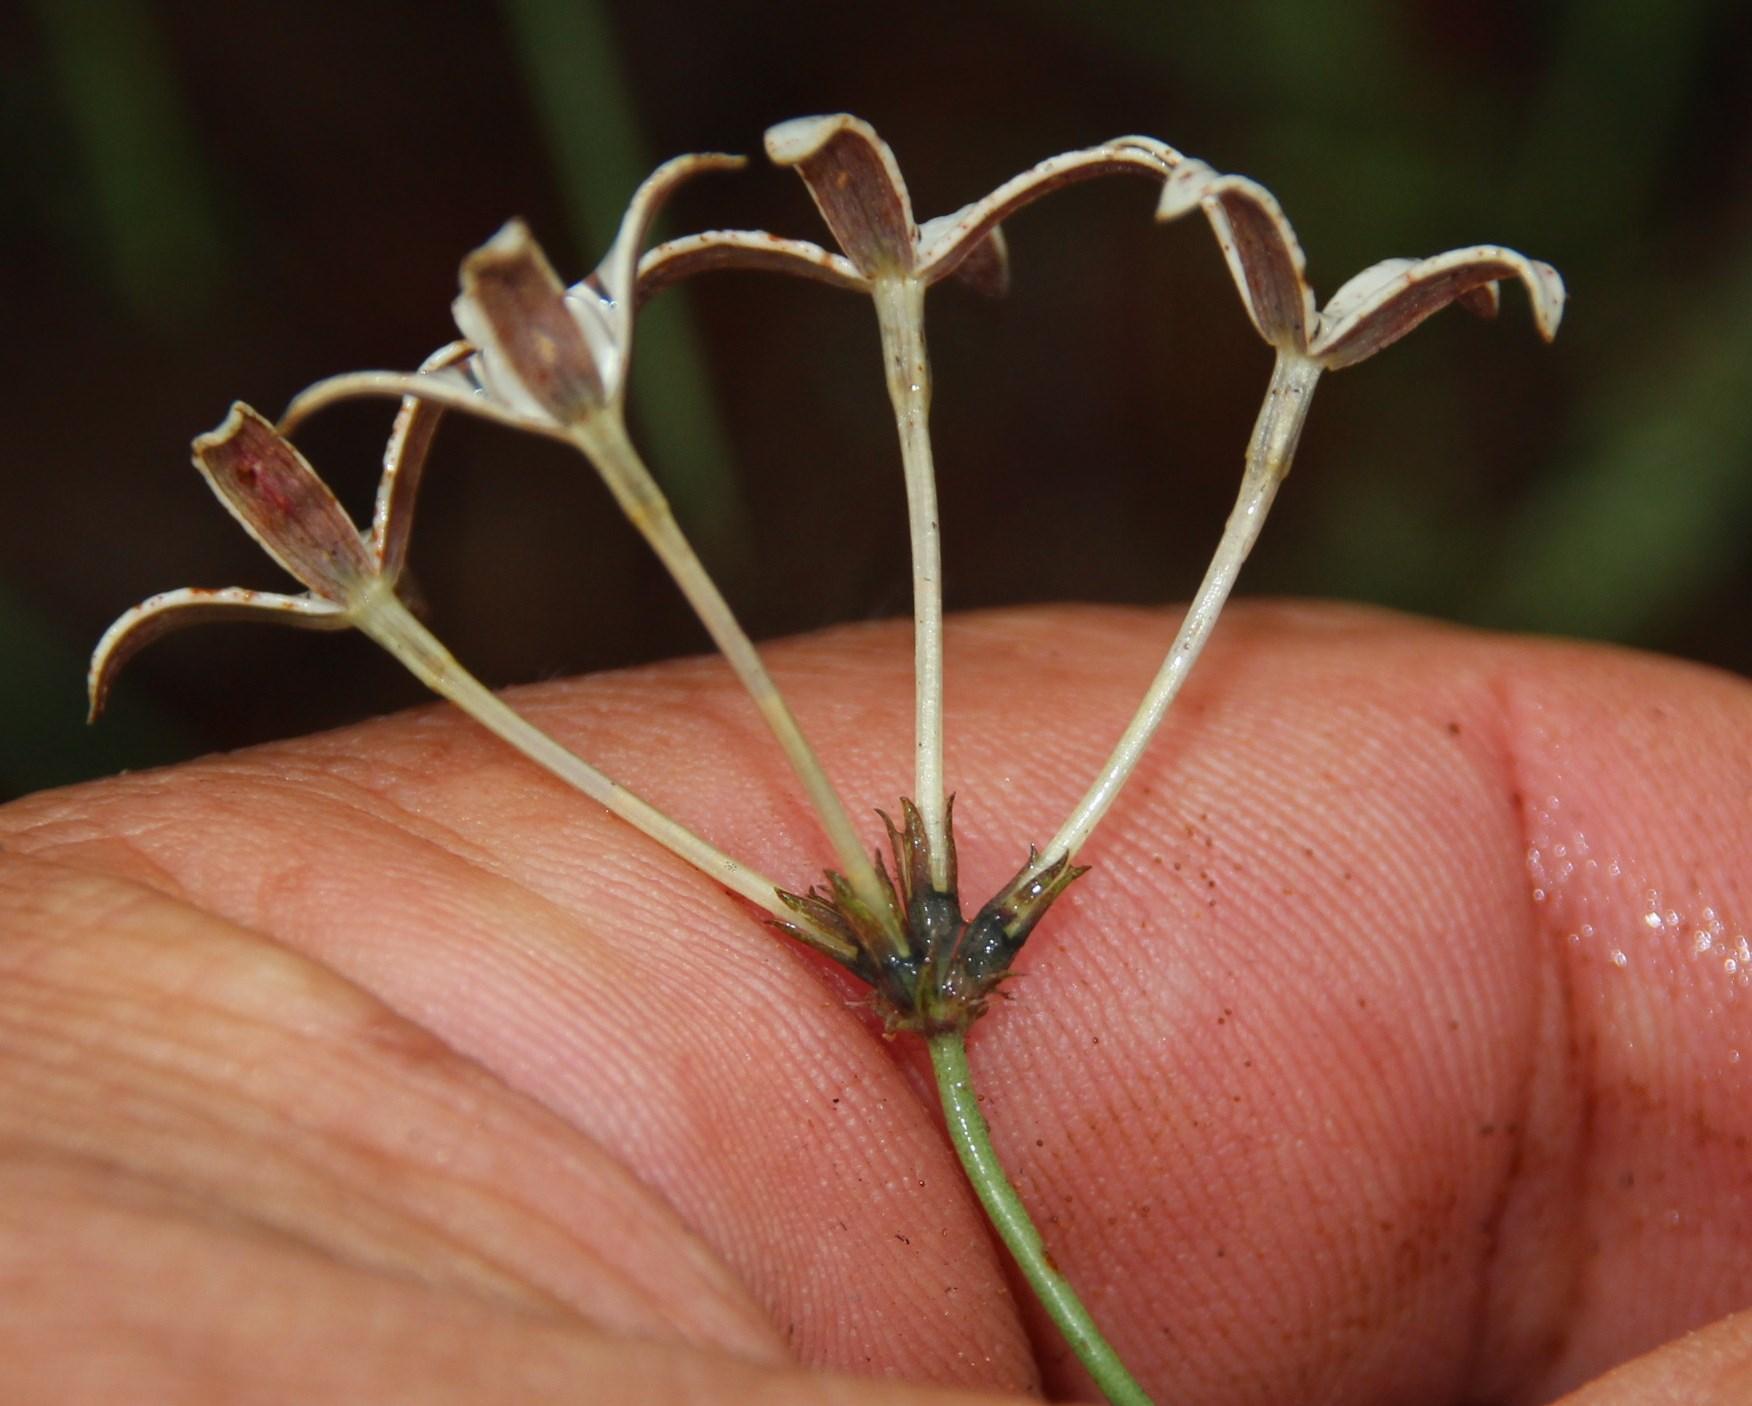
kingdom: Plantae
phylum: Tracheophyta
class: Magnoliopsida
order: Gentianales
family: Rubiaceae
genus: Kohautia
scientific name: Kohautia amatymbica
